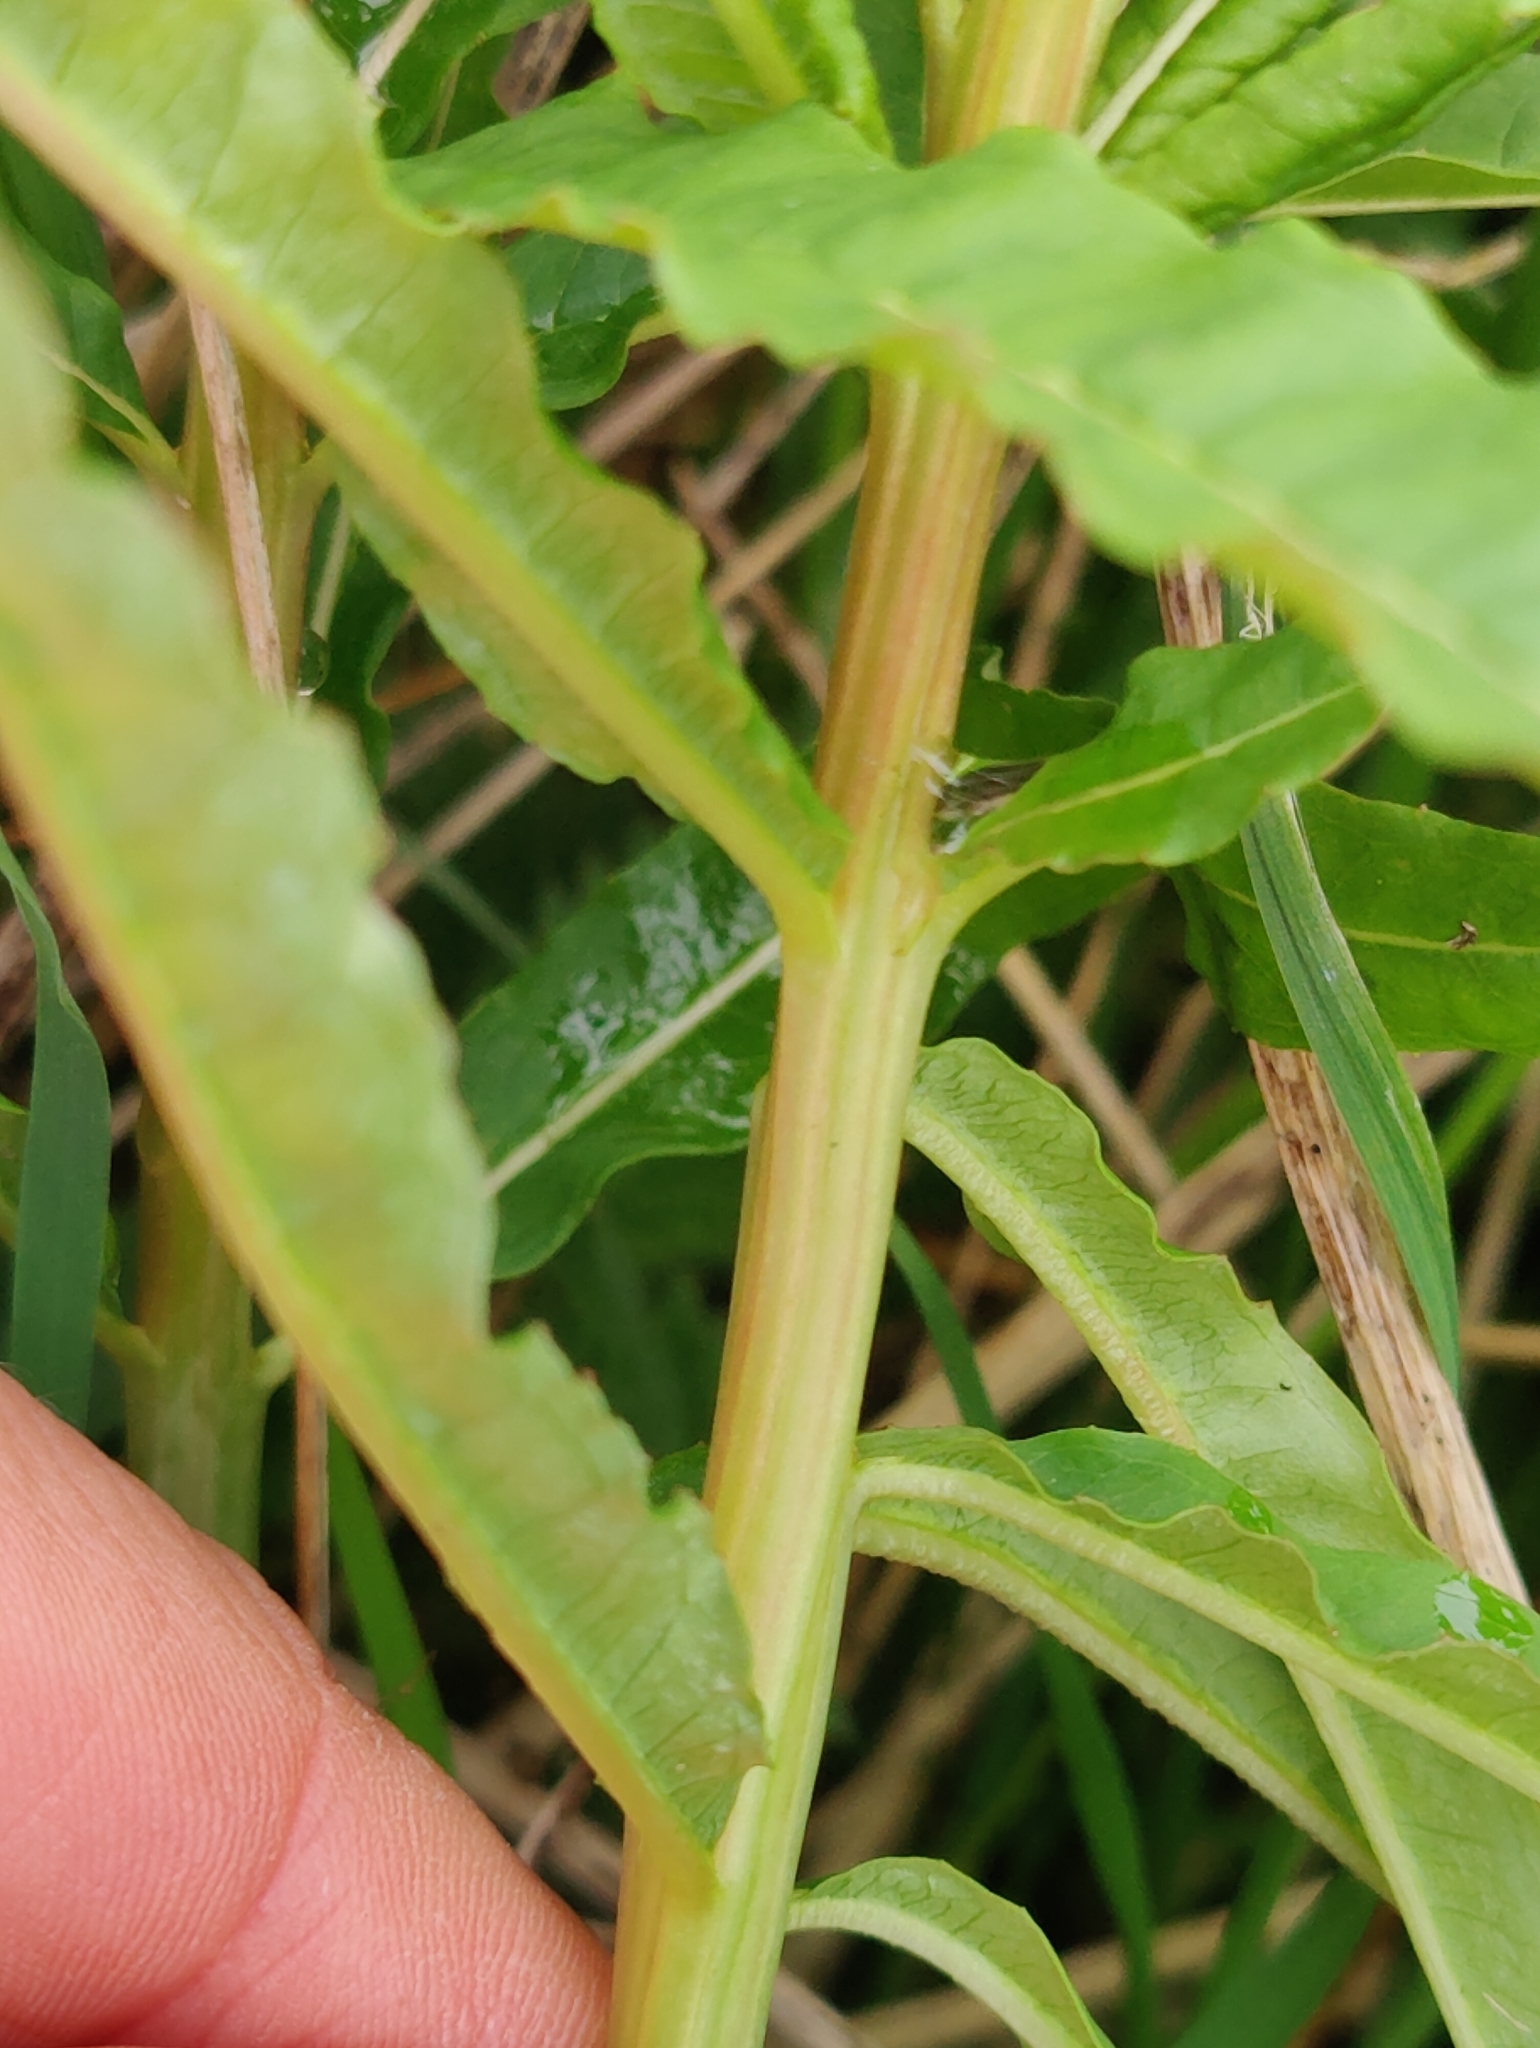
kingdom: Plantae
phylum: Tracheophyta
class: Magnoliopsida
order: Myrtales
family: Onagraceae
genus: Chamaenerion
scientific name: Chamaenerion angustifolium
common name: Fireweed
